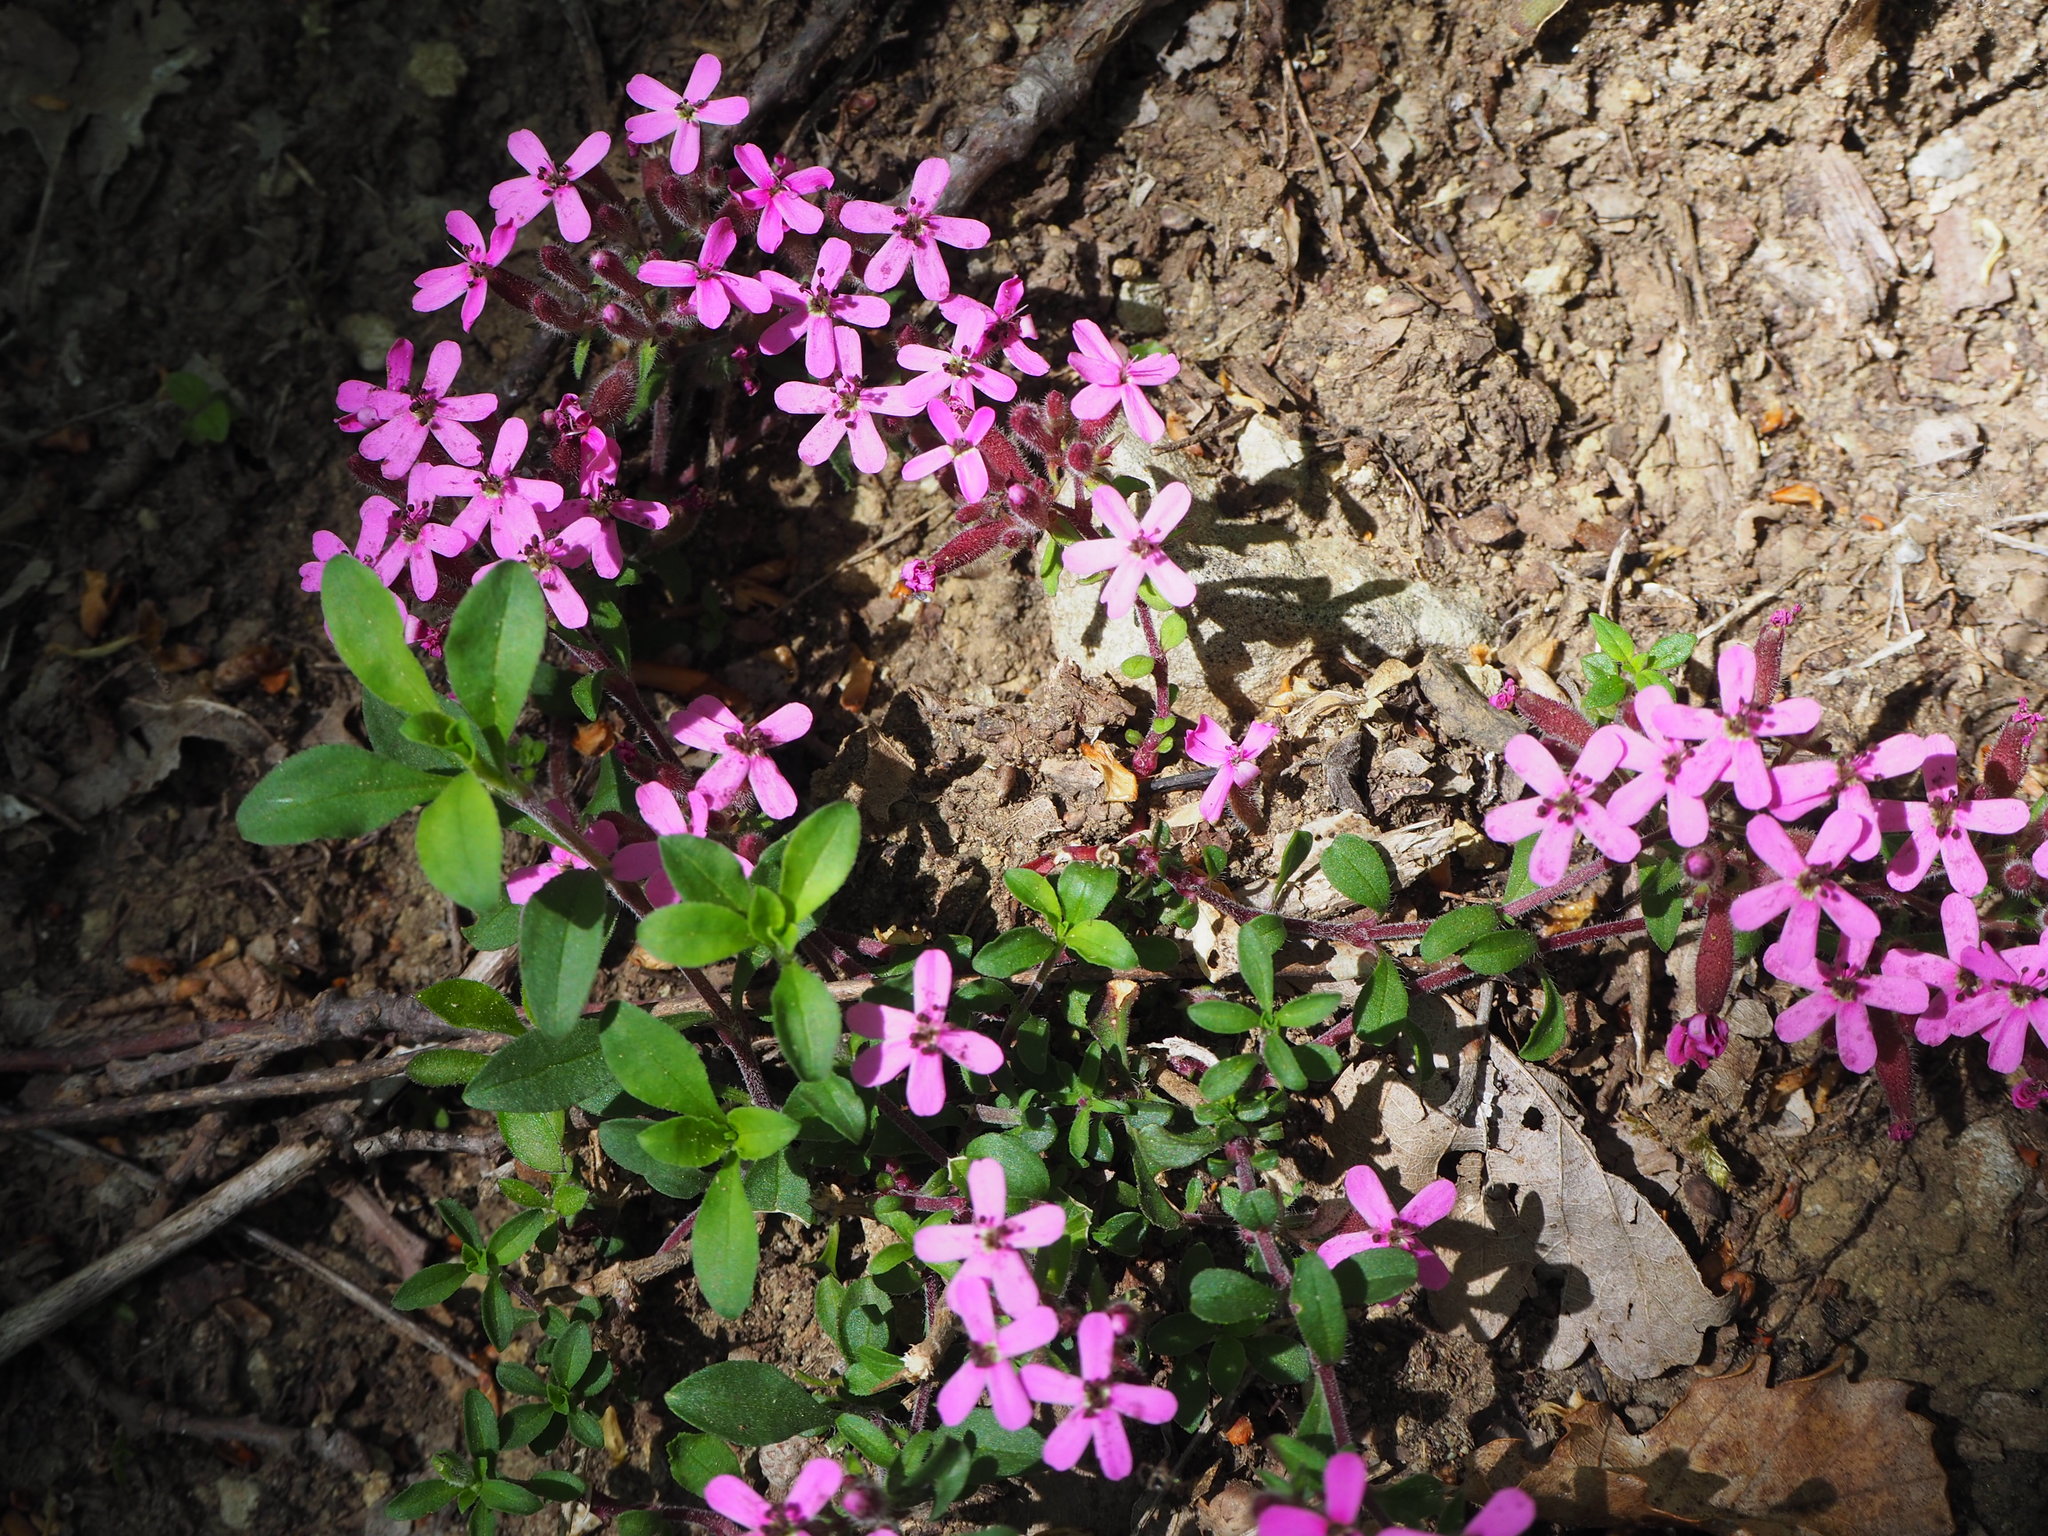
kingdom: Plantae
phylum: Tracheophyta
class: Magnoliopsida
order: Caryophyllales
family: Caryophyllaceae
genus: Saponaria
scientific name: Saponaria ocymoides
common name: Rock soapwort
